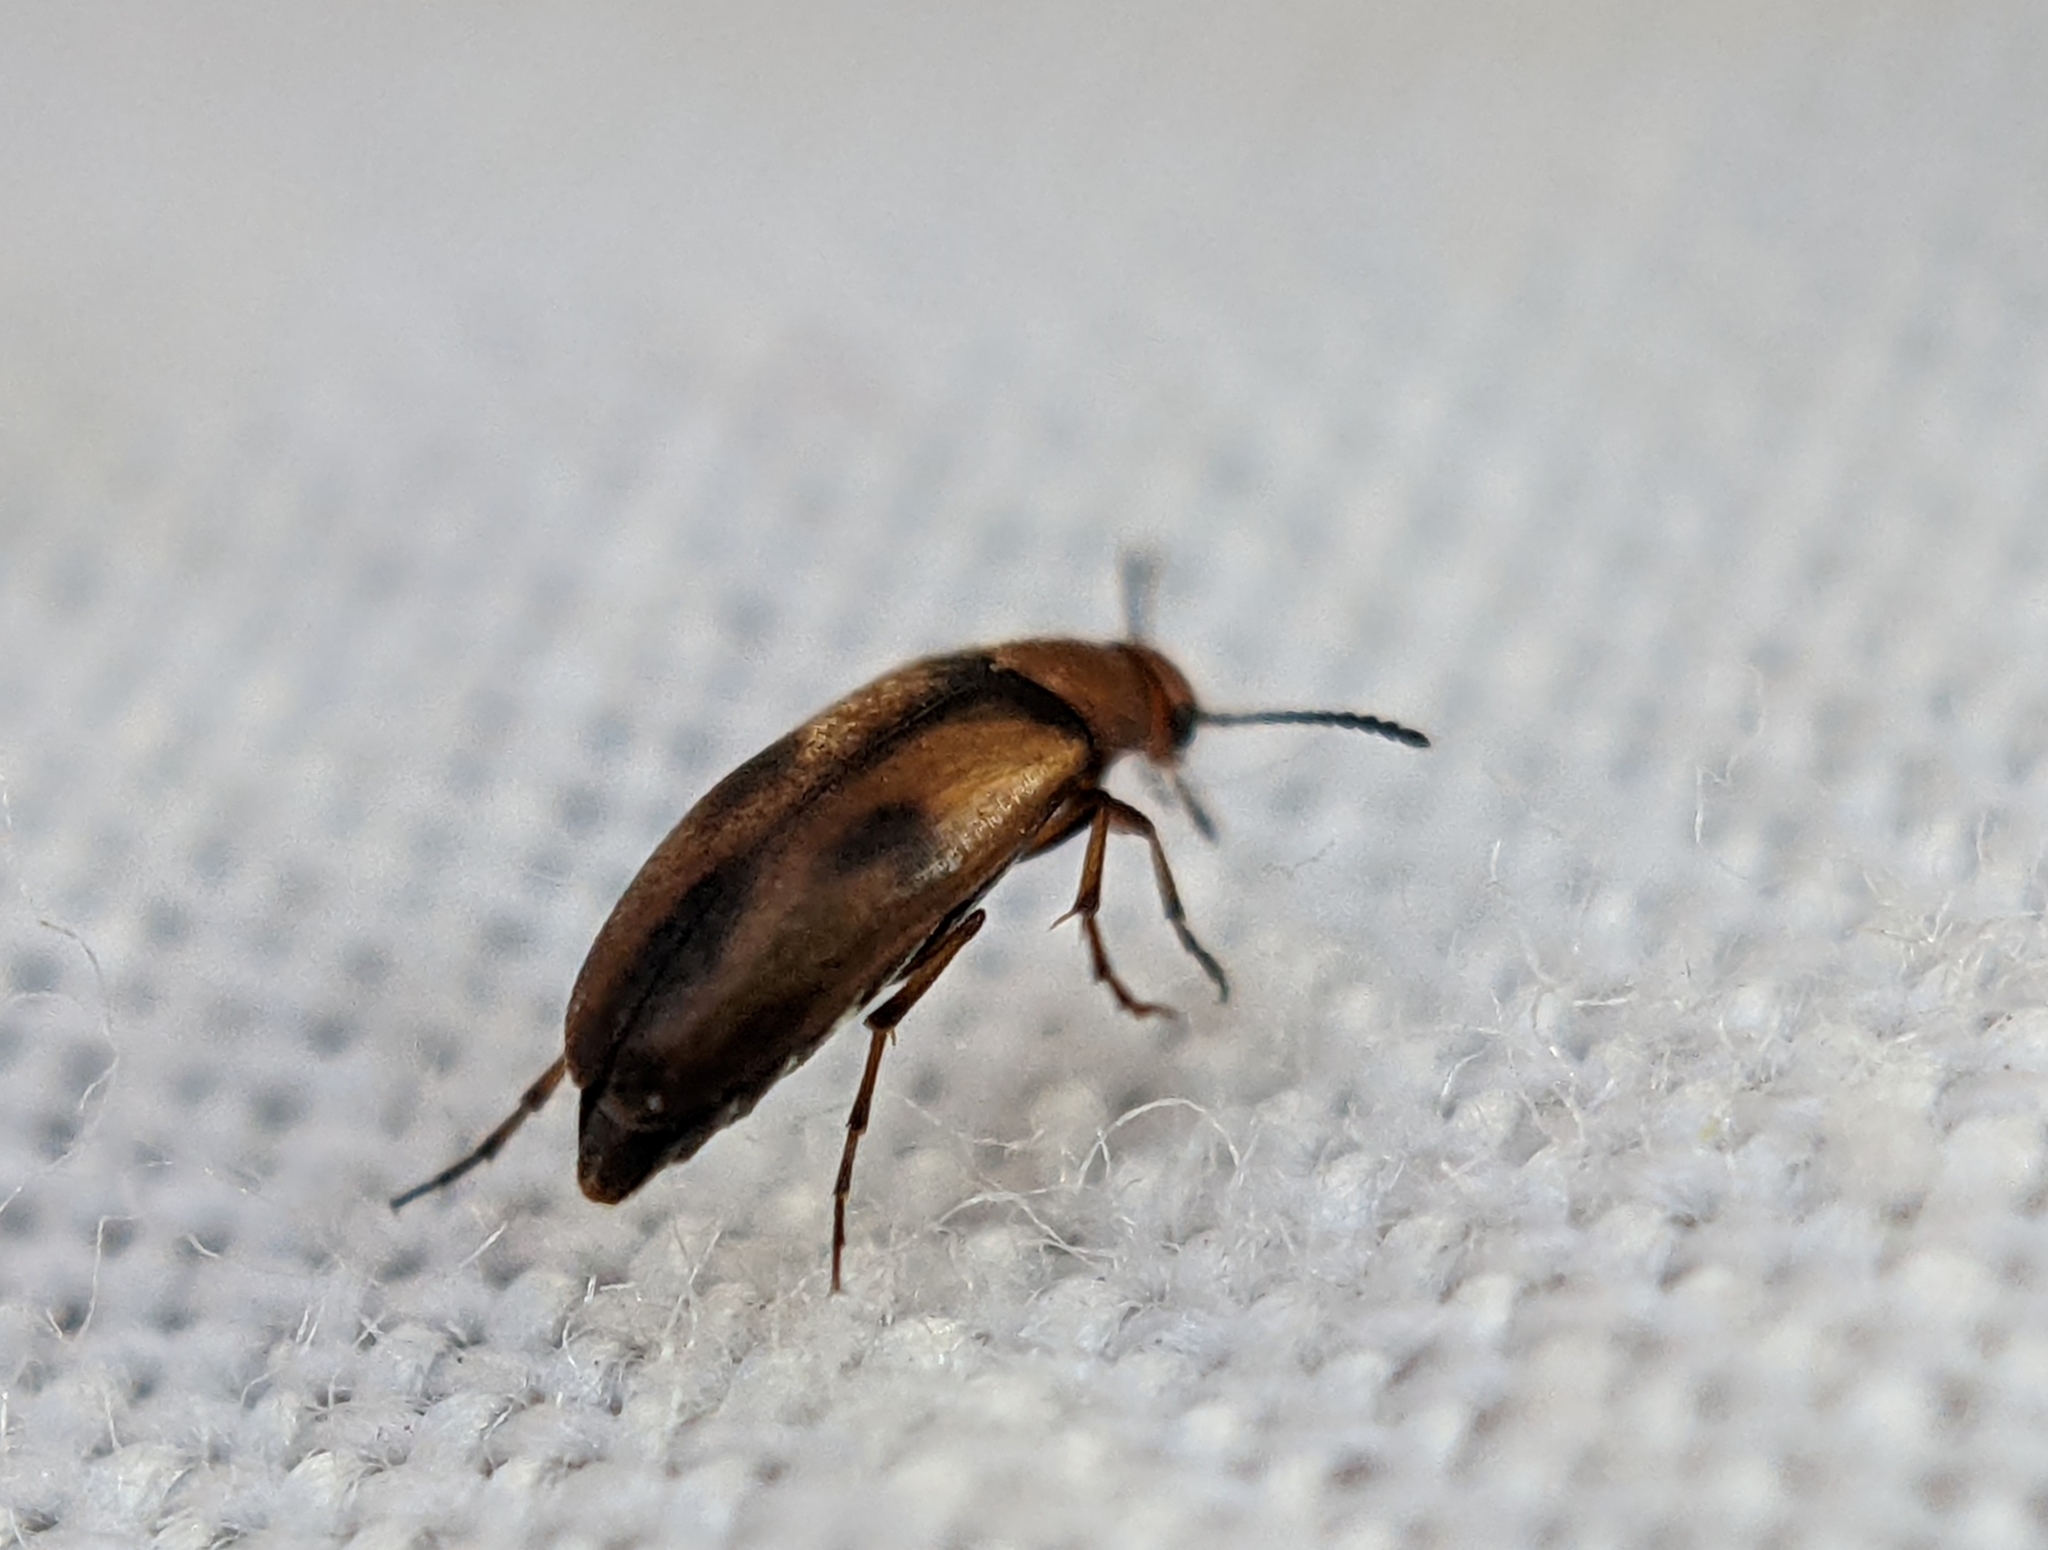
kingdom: Animalia
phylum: Arthropoda
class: Insecta
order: Coleoptera
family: Scraptiidae
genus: Anaspis
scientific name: Anaspis maculata
